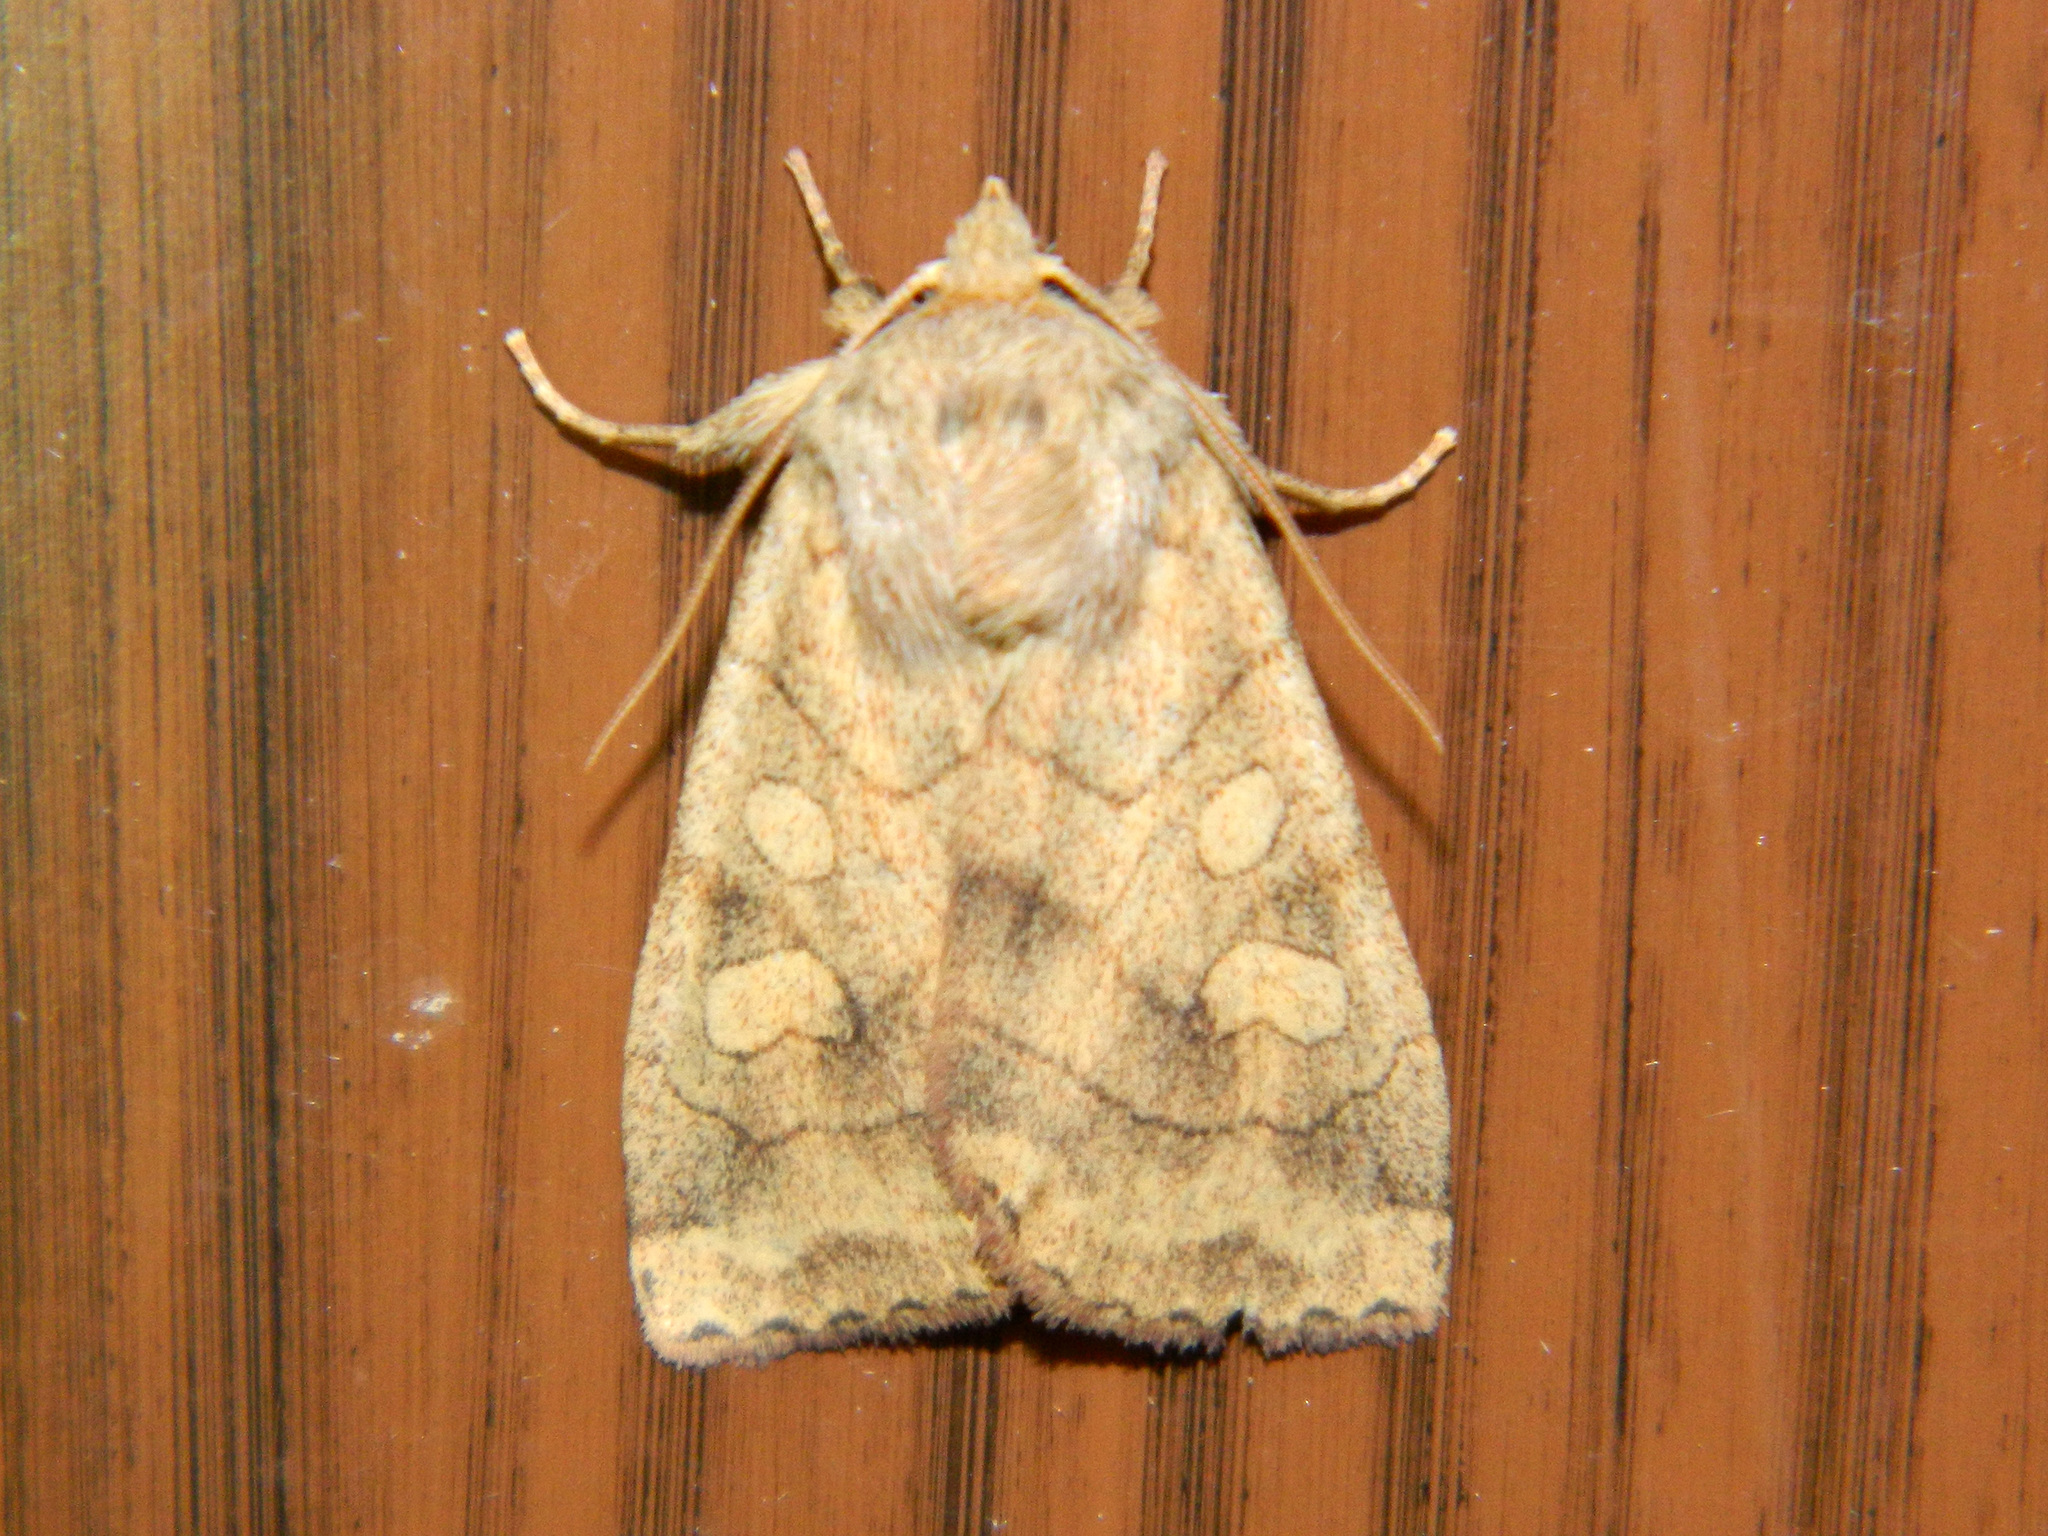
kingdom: Animalia
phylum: Arthropoda
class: Insecta
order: Lepidoptera
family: Noctuidae
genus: Enargia
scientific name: Enargia decolor
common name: Aspen twoleaf tier moth
